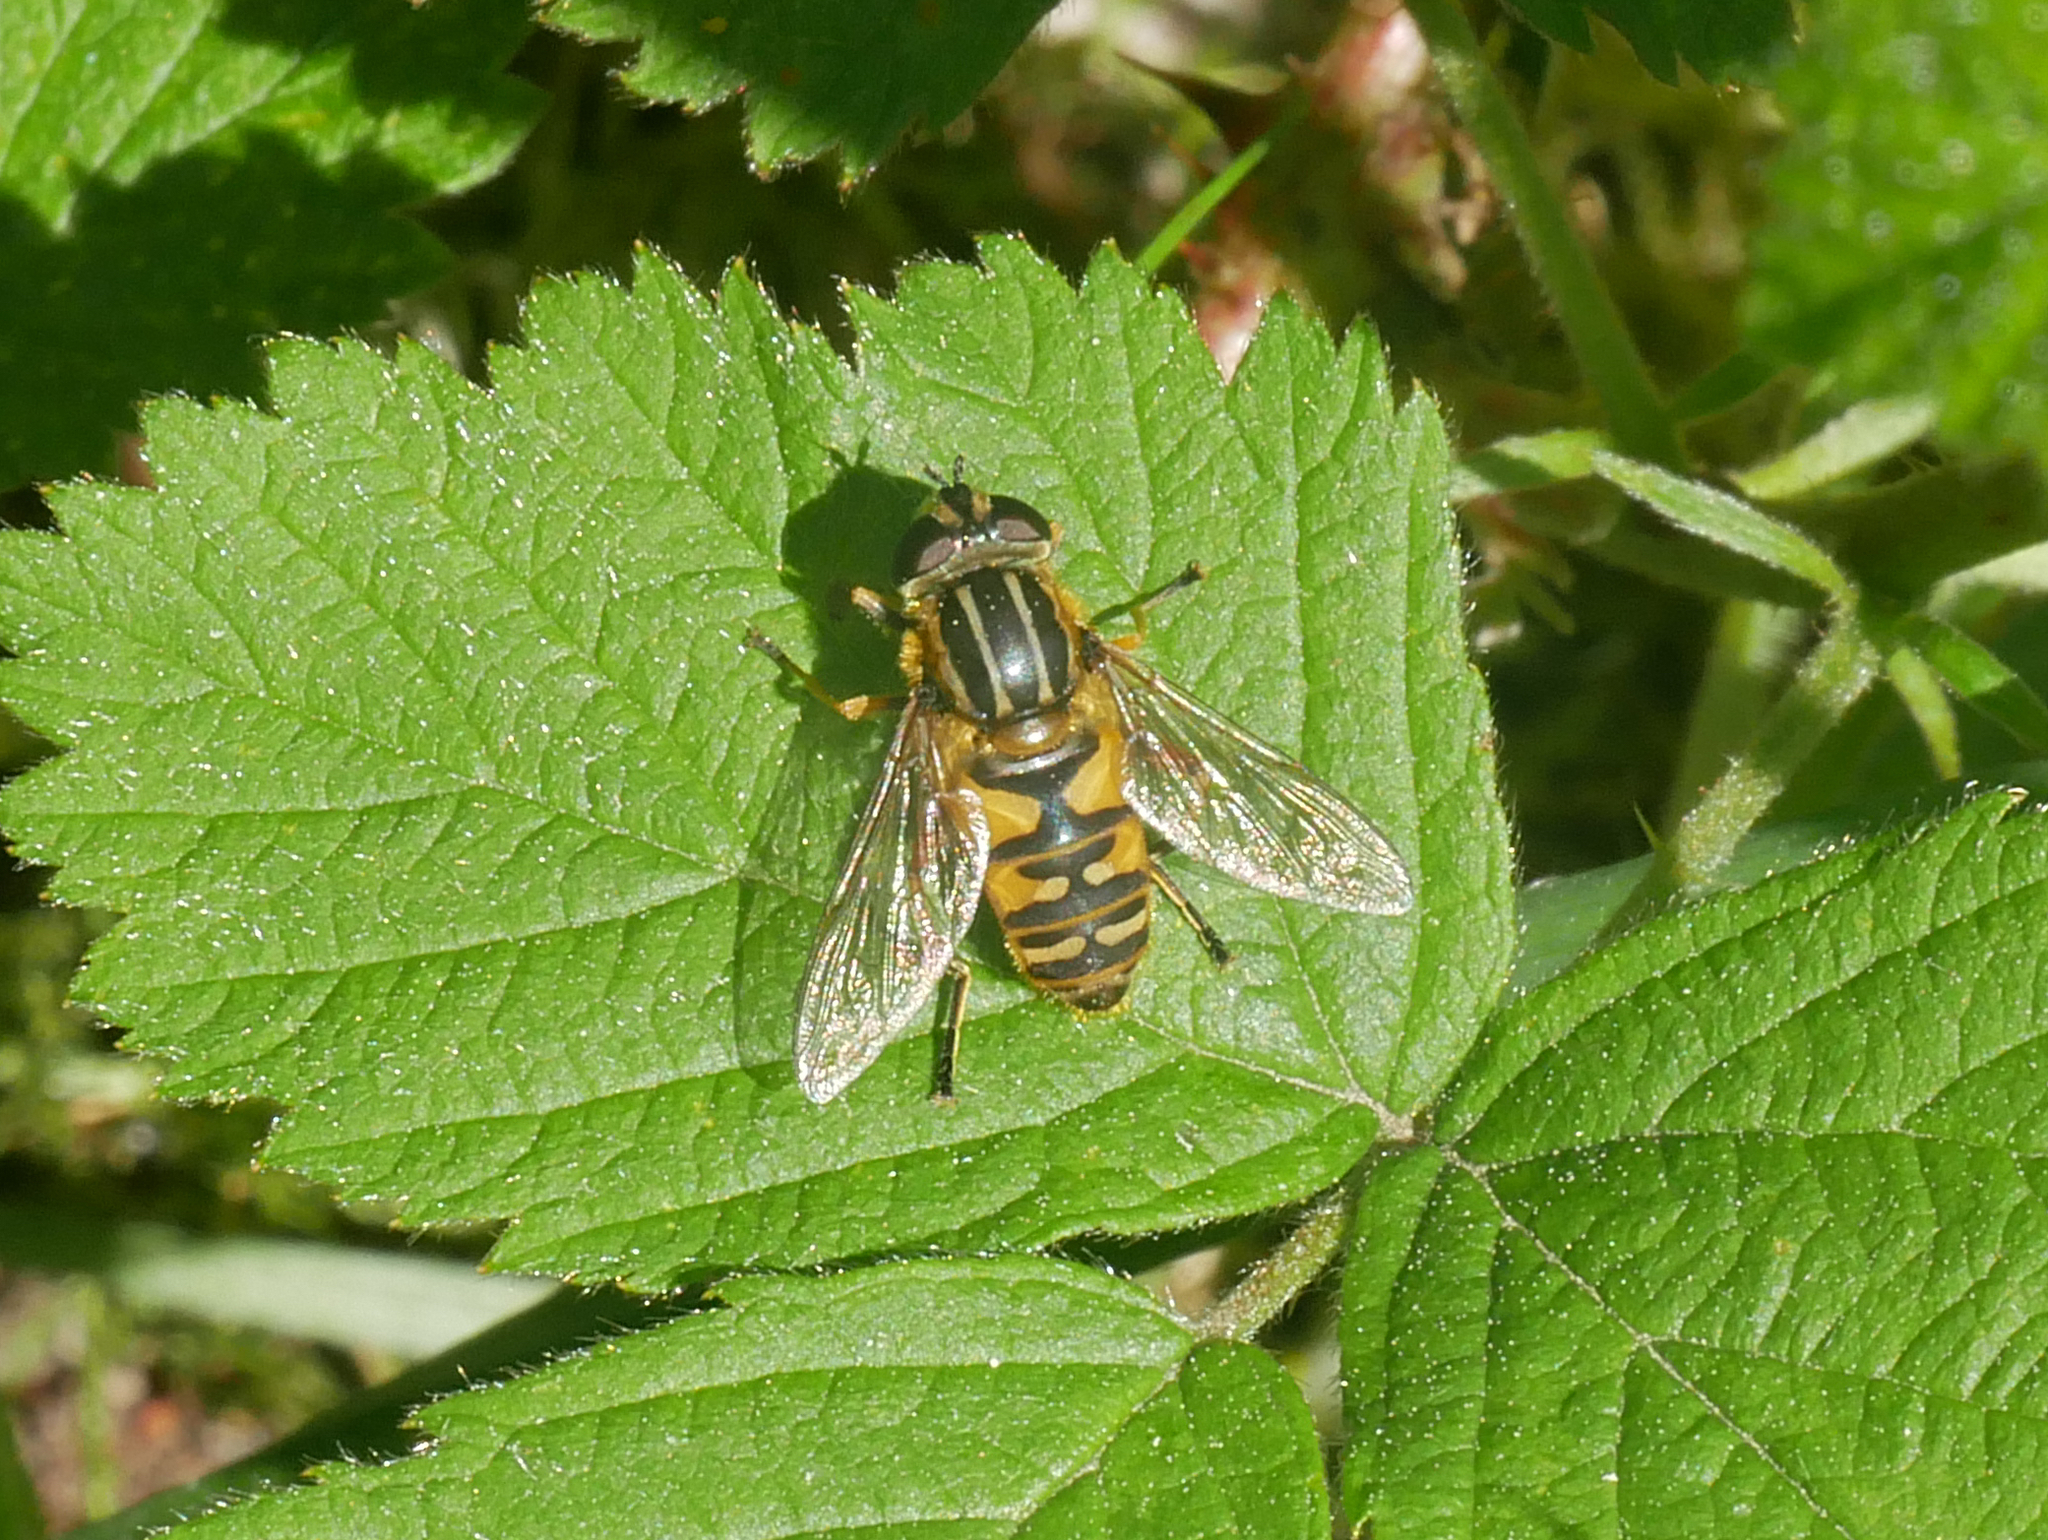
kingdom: Animalia
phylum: Arthropoda
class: Insecta
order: Diptera
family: Syrphidae
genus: Helophilus
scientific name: Helophilus pendulus
